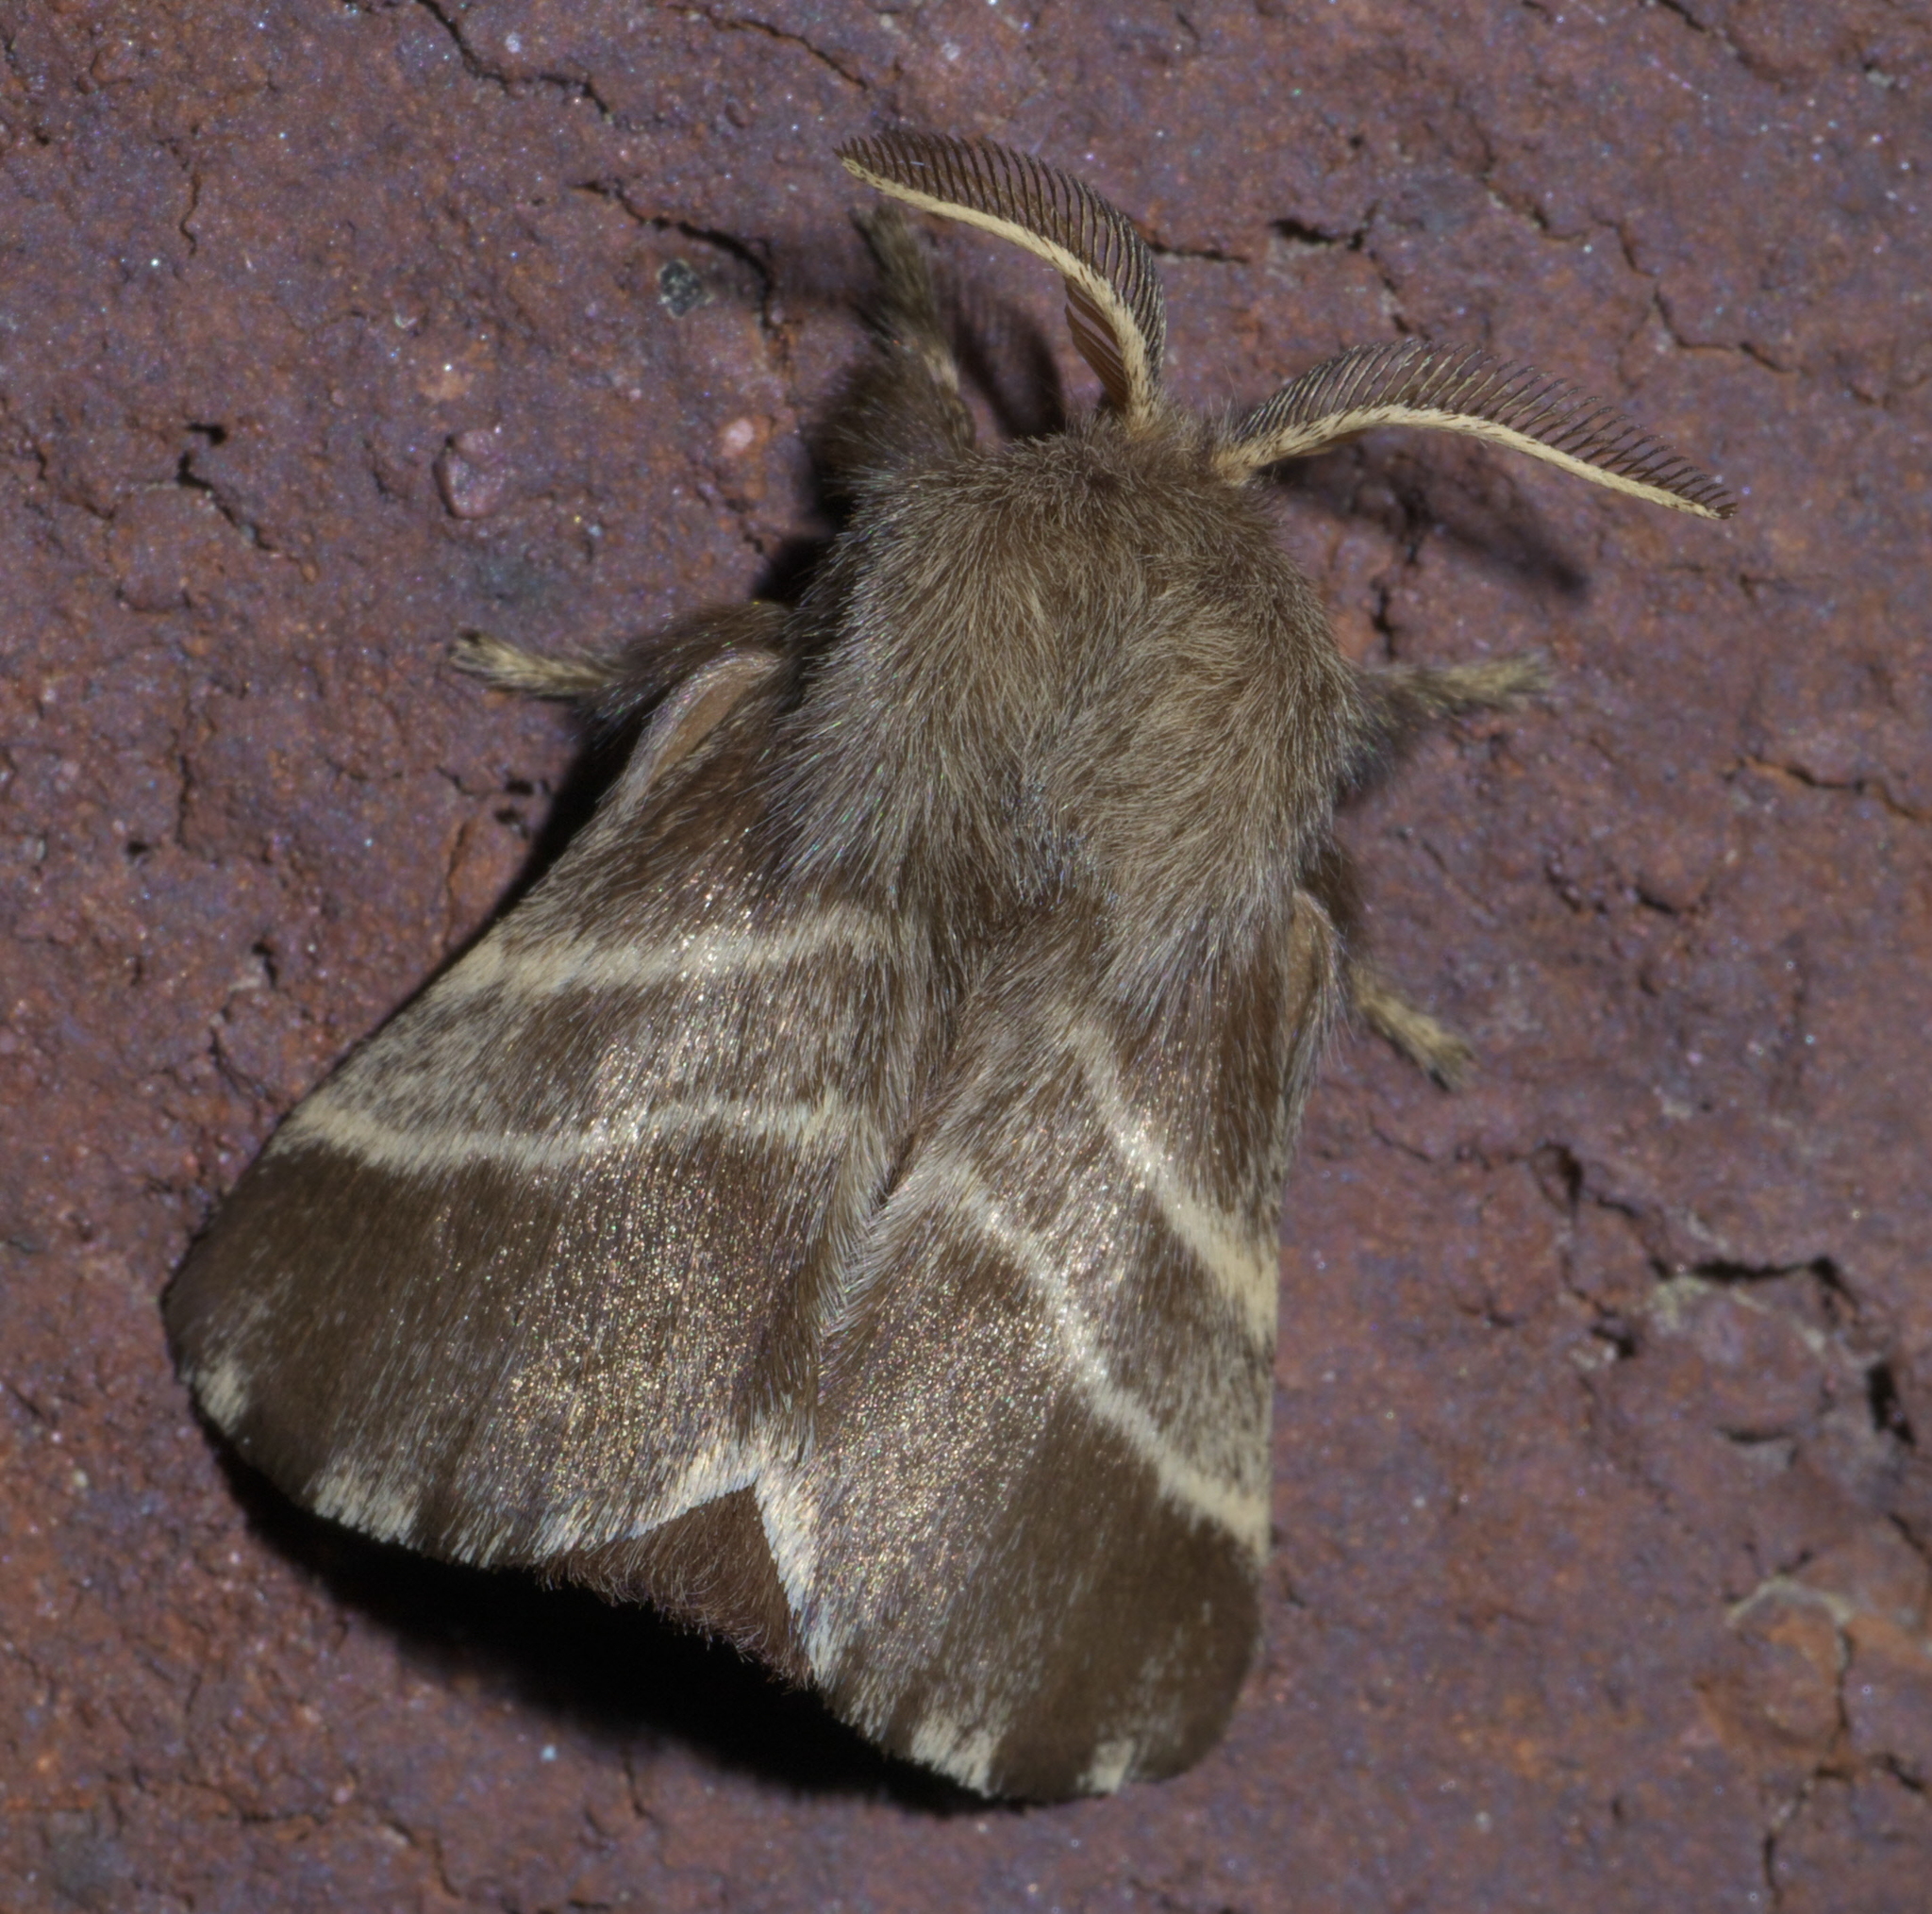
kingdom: Animalia
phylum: Arthropoda
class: Insecta
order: Lepidoptera
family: Lasiocampidae
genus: Malacosoma
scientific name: Malacosoma americana
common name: Eastern tent caterpillar moth
